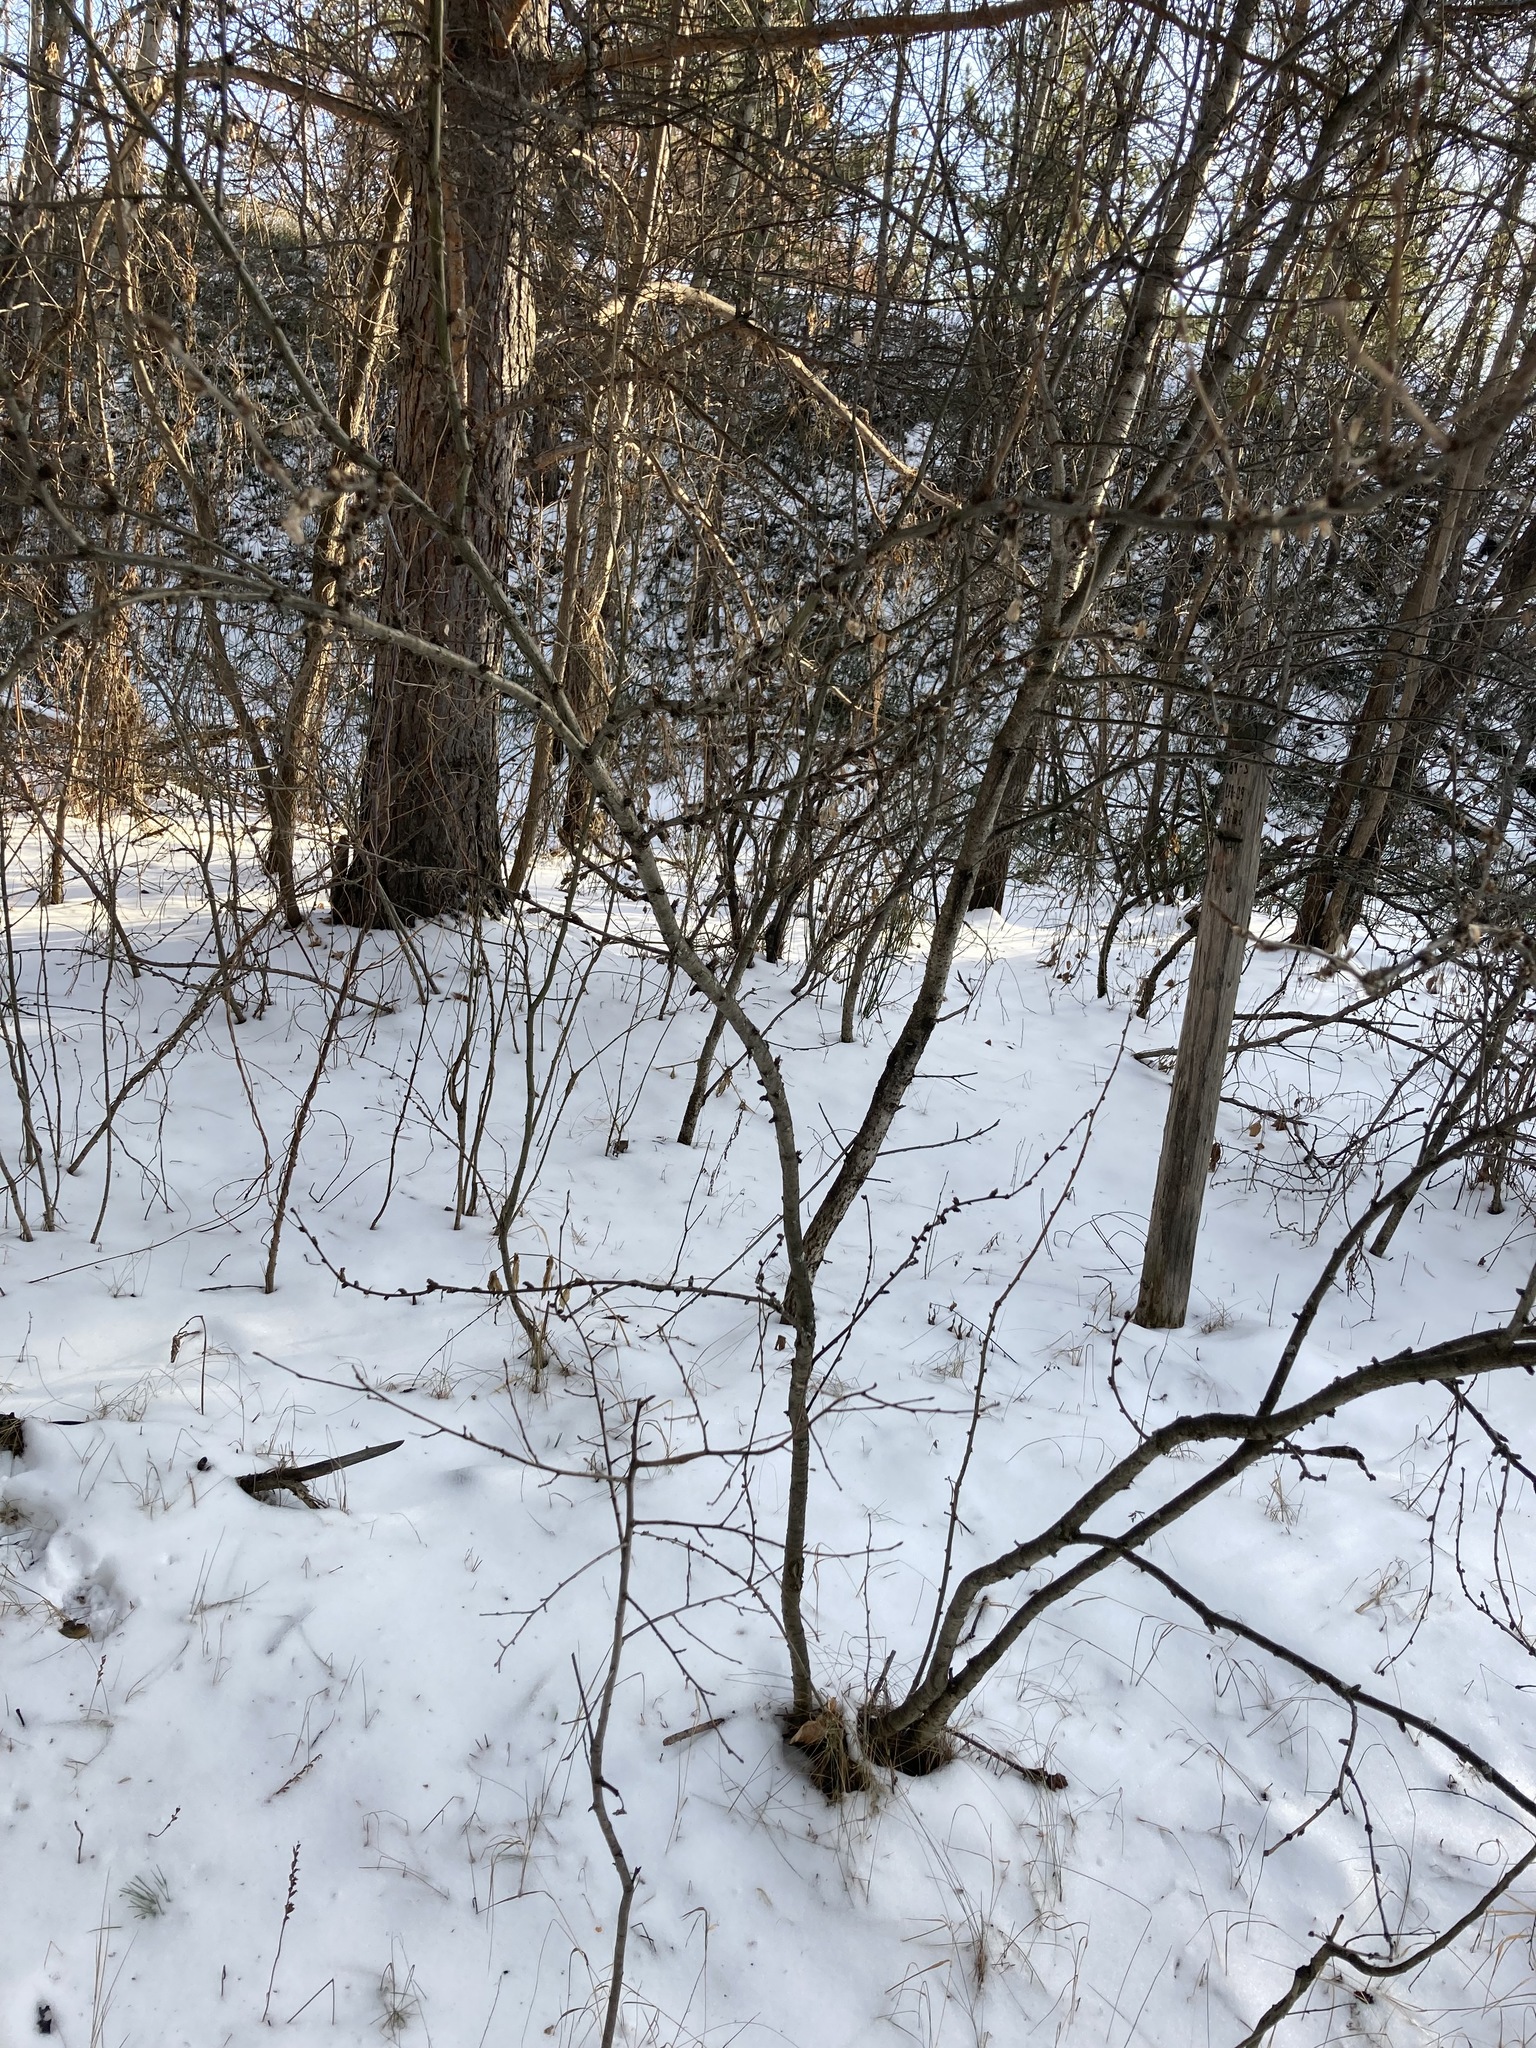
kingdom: Plantae
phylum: Tracheophyta
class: Magnoliopsida
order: Fabales
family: Fabaceae
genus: Caragana
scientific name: Caragana arborescens
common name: Siberian peashrub
